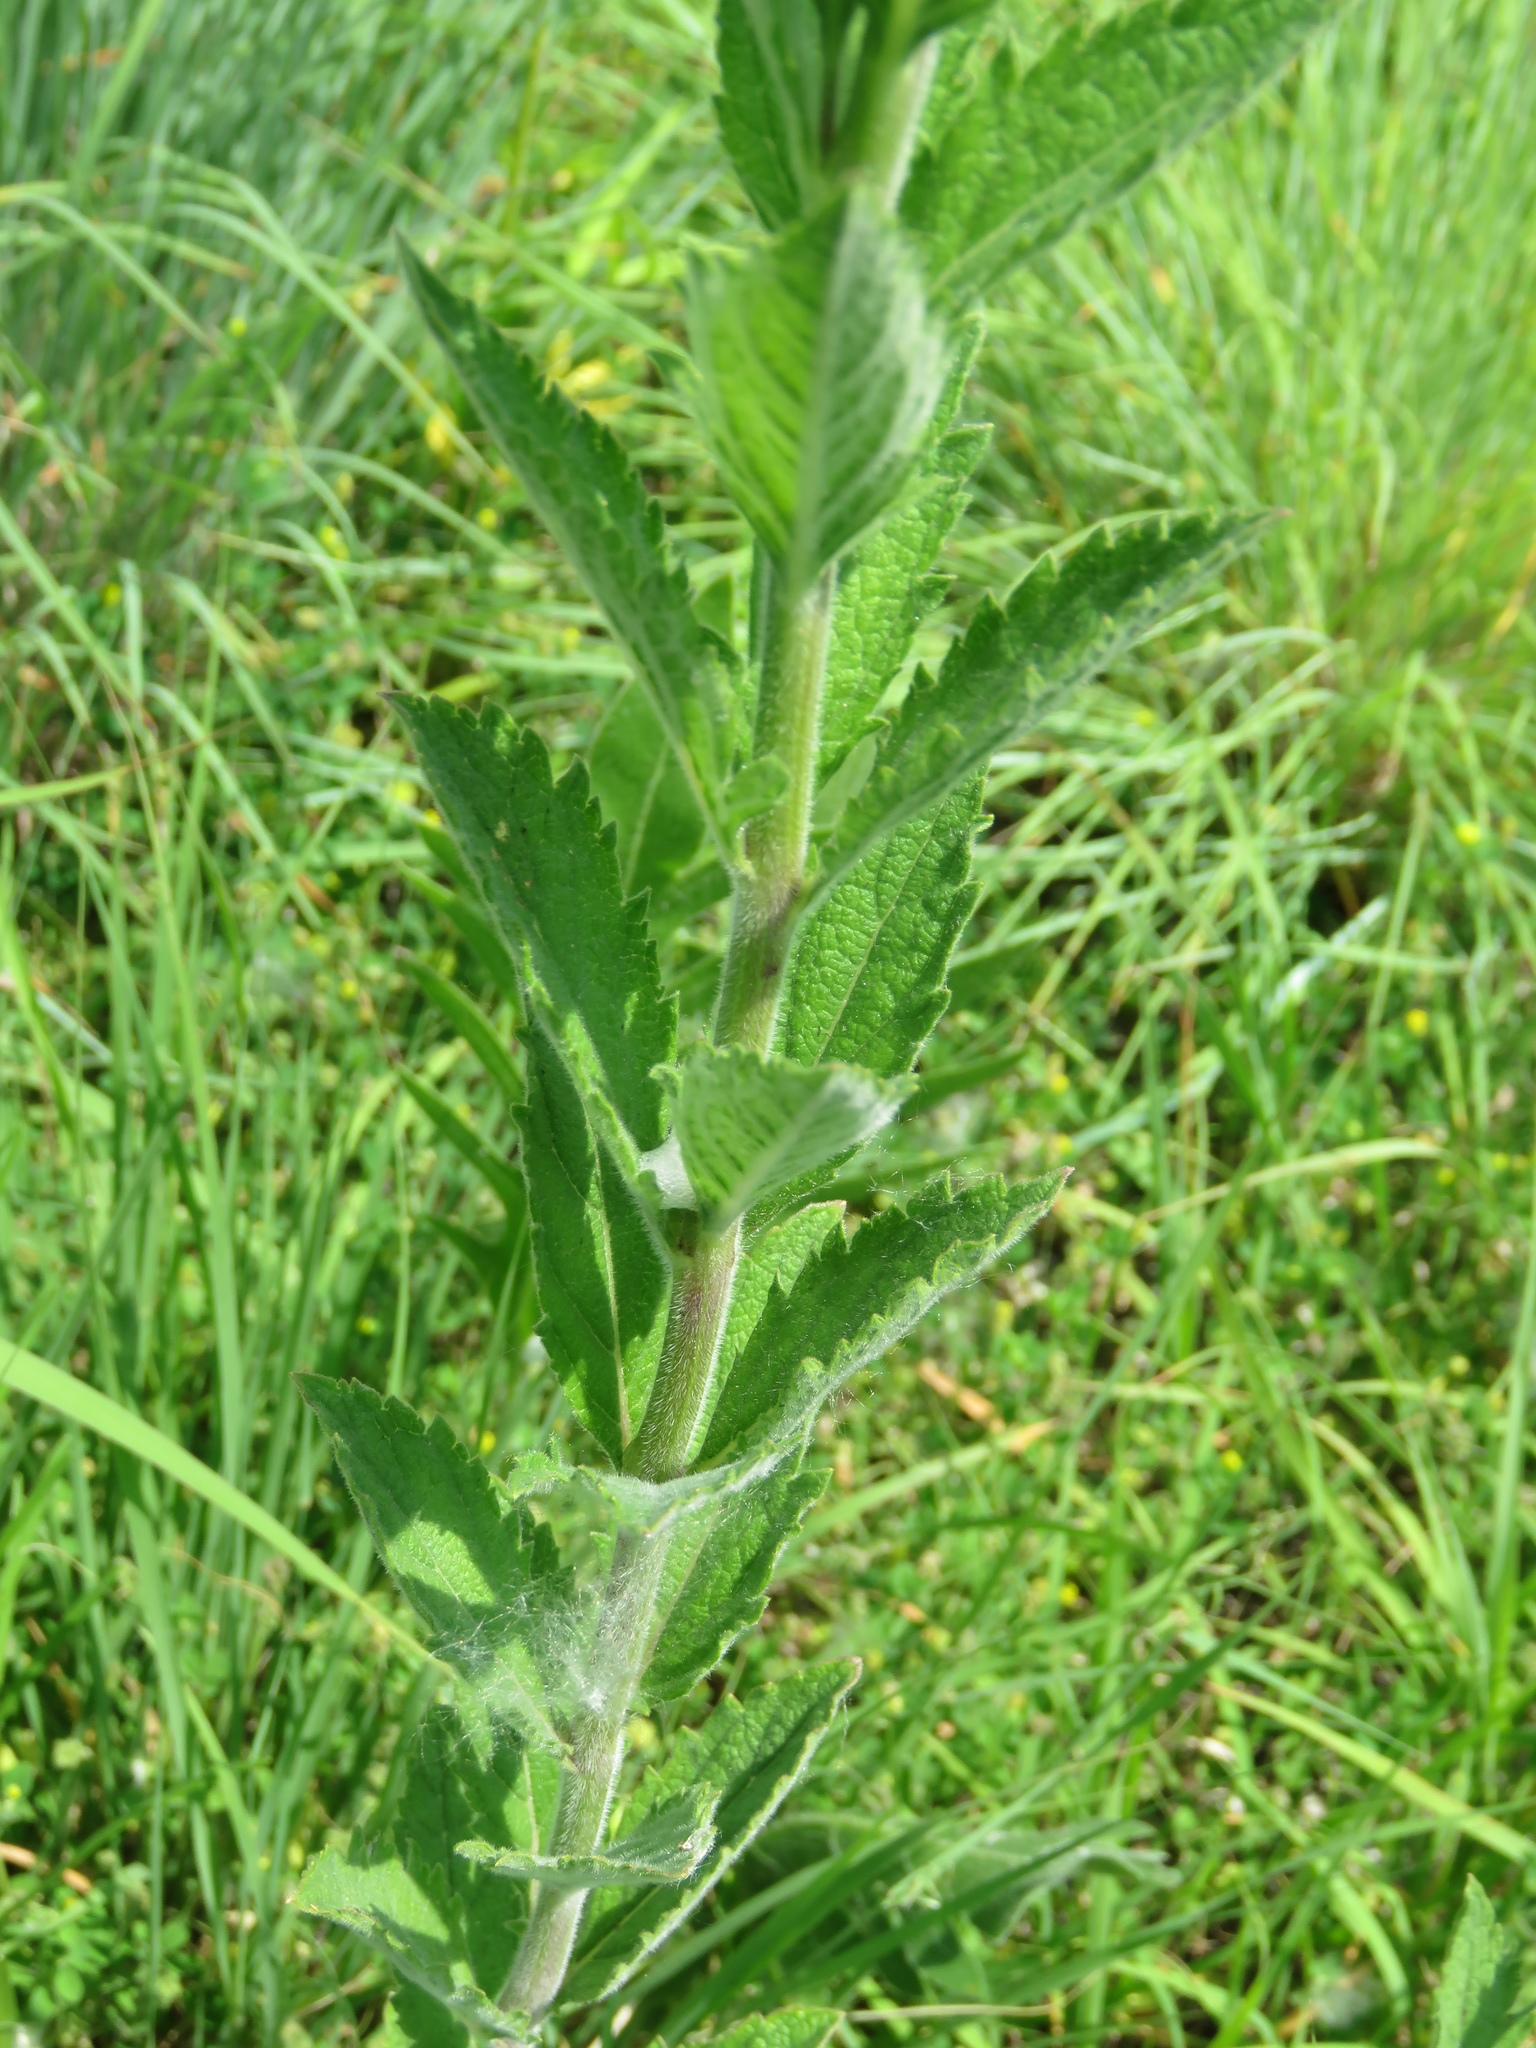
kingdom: Plantae
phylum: Tracheophyta
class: Magnoliopsida
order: Lamiales
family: Verbenaceae
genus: Verbena
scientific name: Verbena stricta
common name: Hoary vervain
